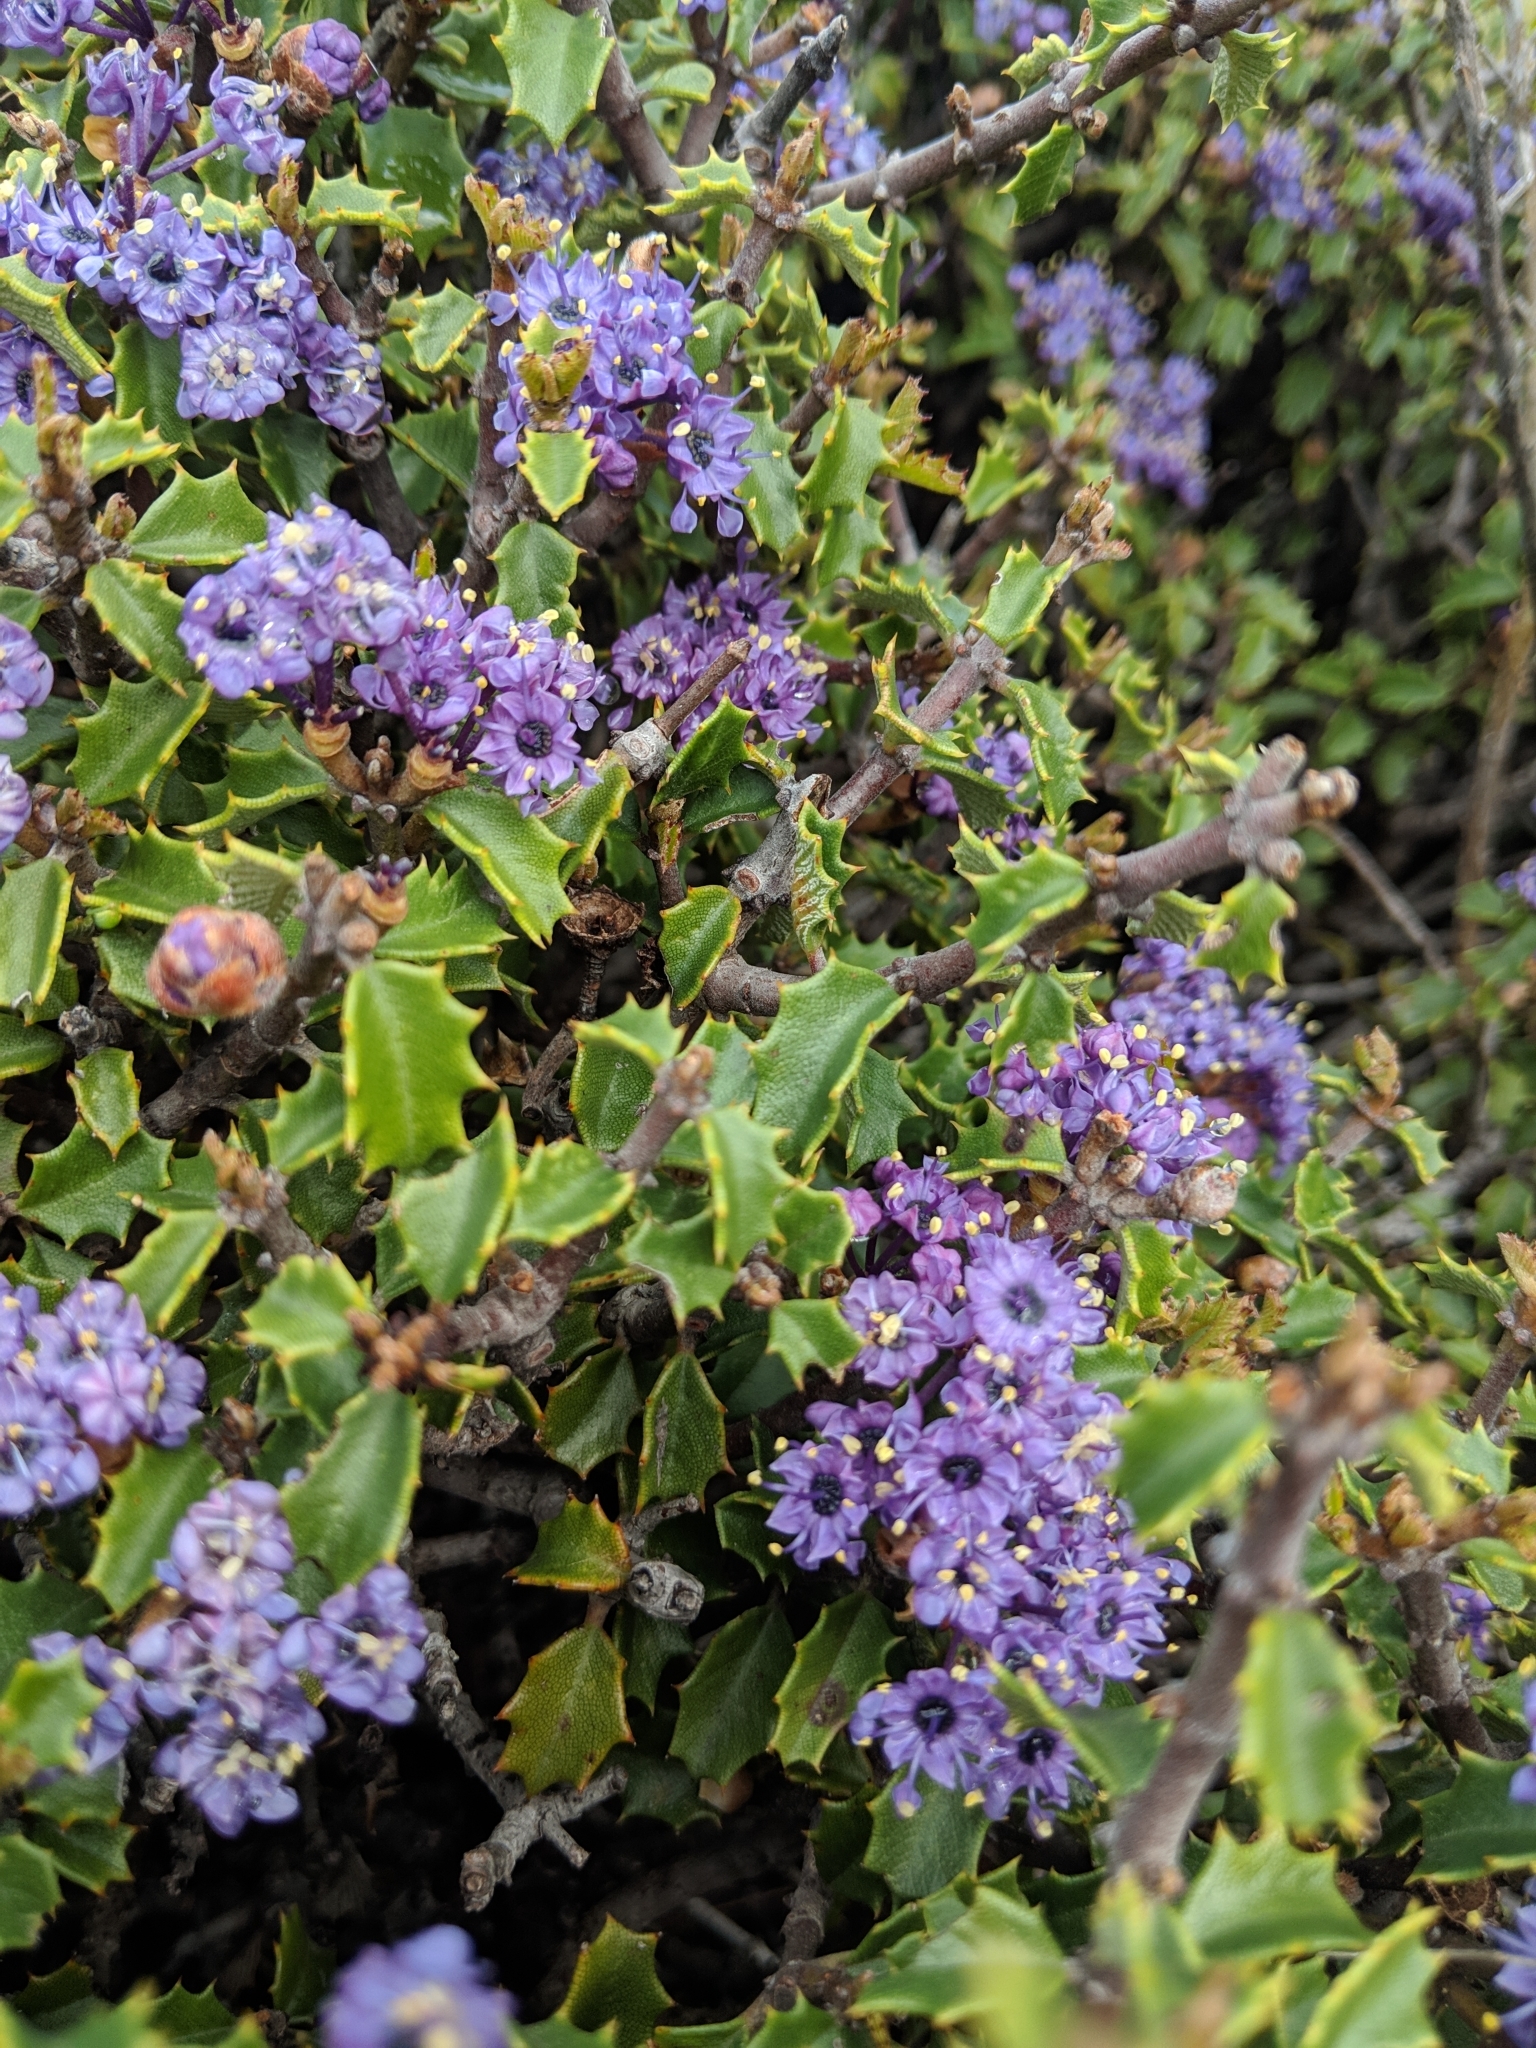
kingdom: Plantae
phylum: Tracheophyta
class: Magnoliopsida
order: Rosales
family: Rhamnaceae
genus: Ceanothus
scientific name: Ceanothus jepsonii
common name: Muskbrush
